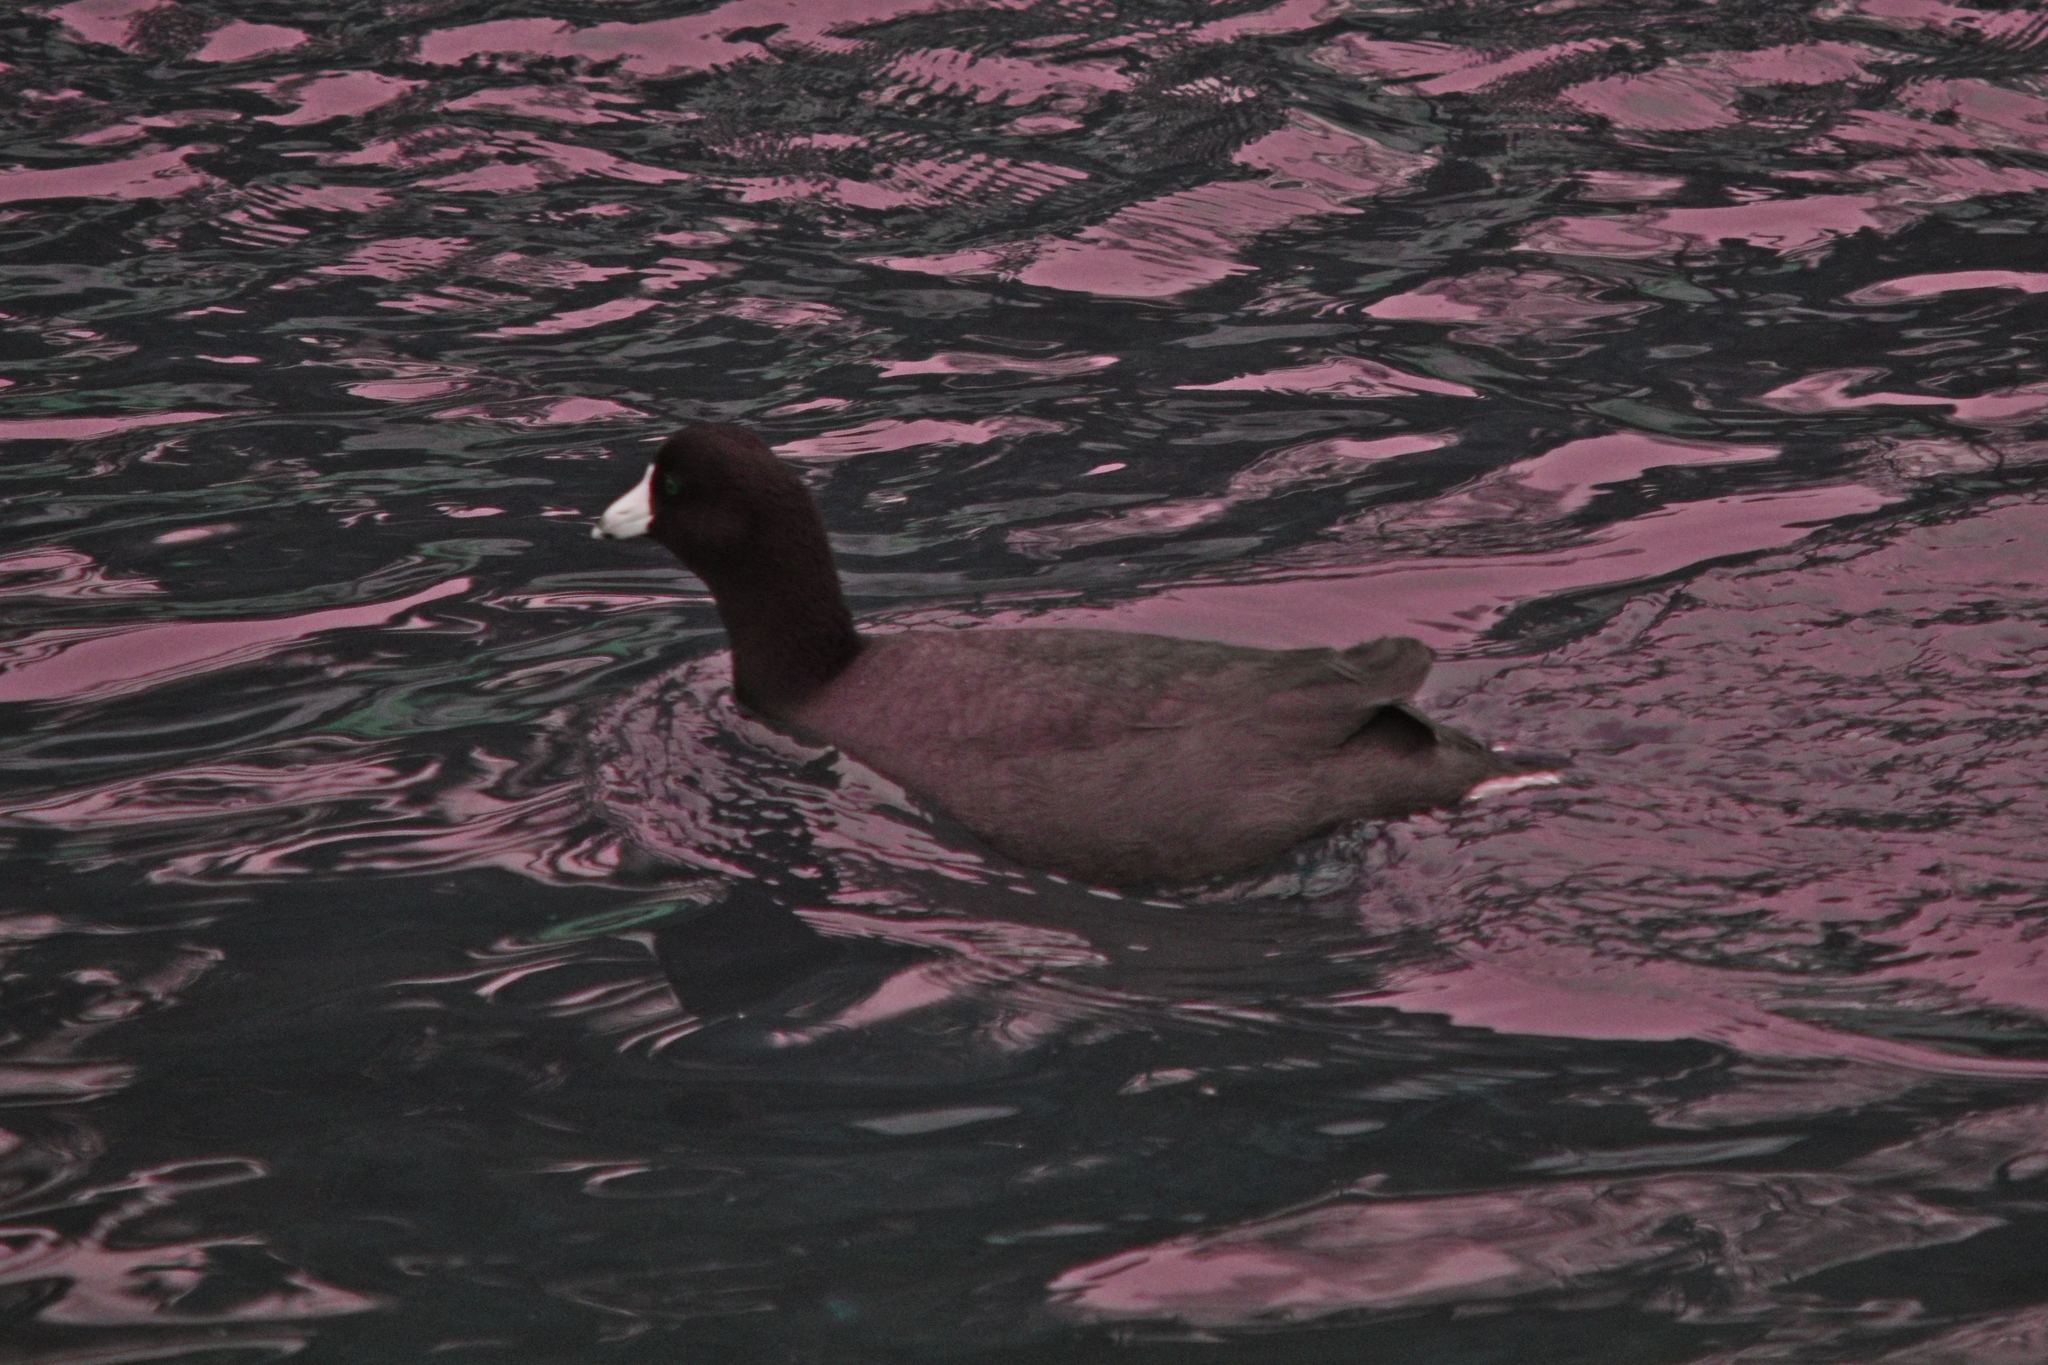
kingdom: Animalia
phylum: Chordata
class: Aves
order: Gruiformes
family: Rallidae
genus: Fulica
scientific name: Fulica americana
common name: American coot
